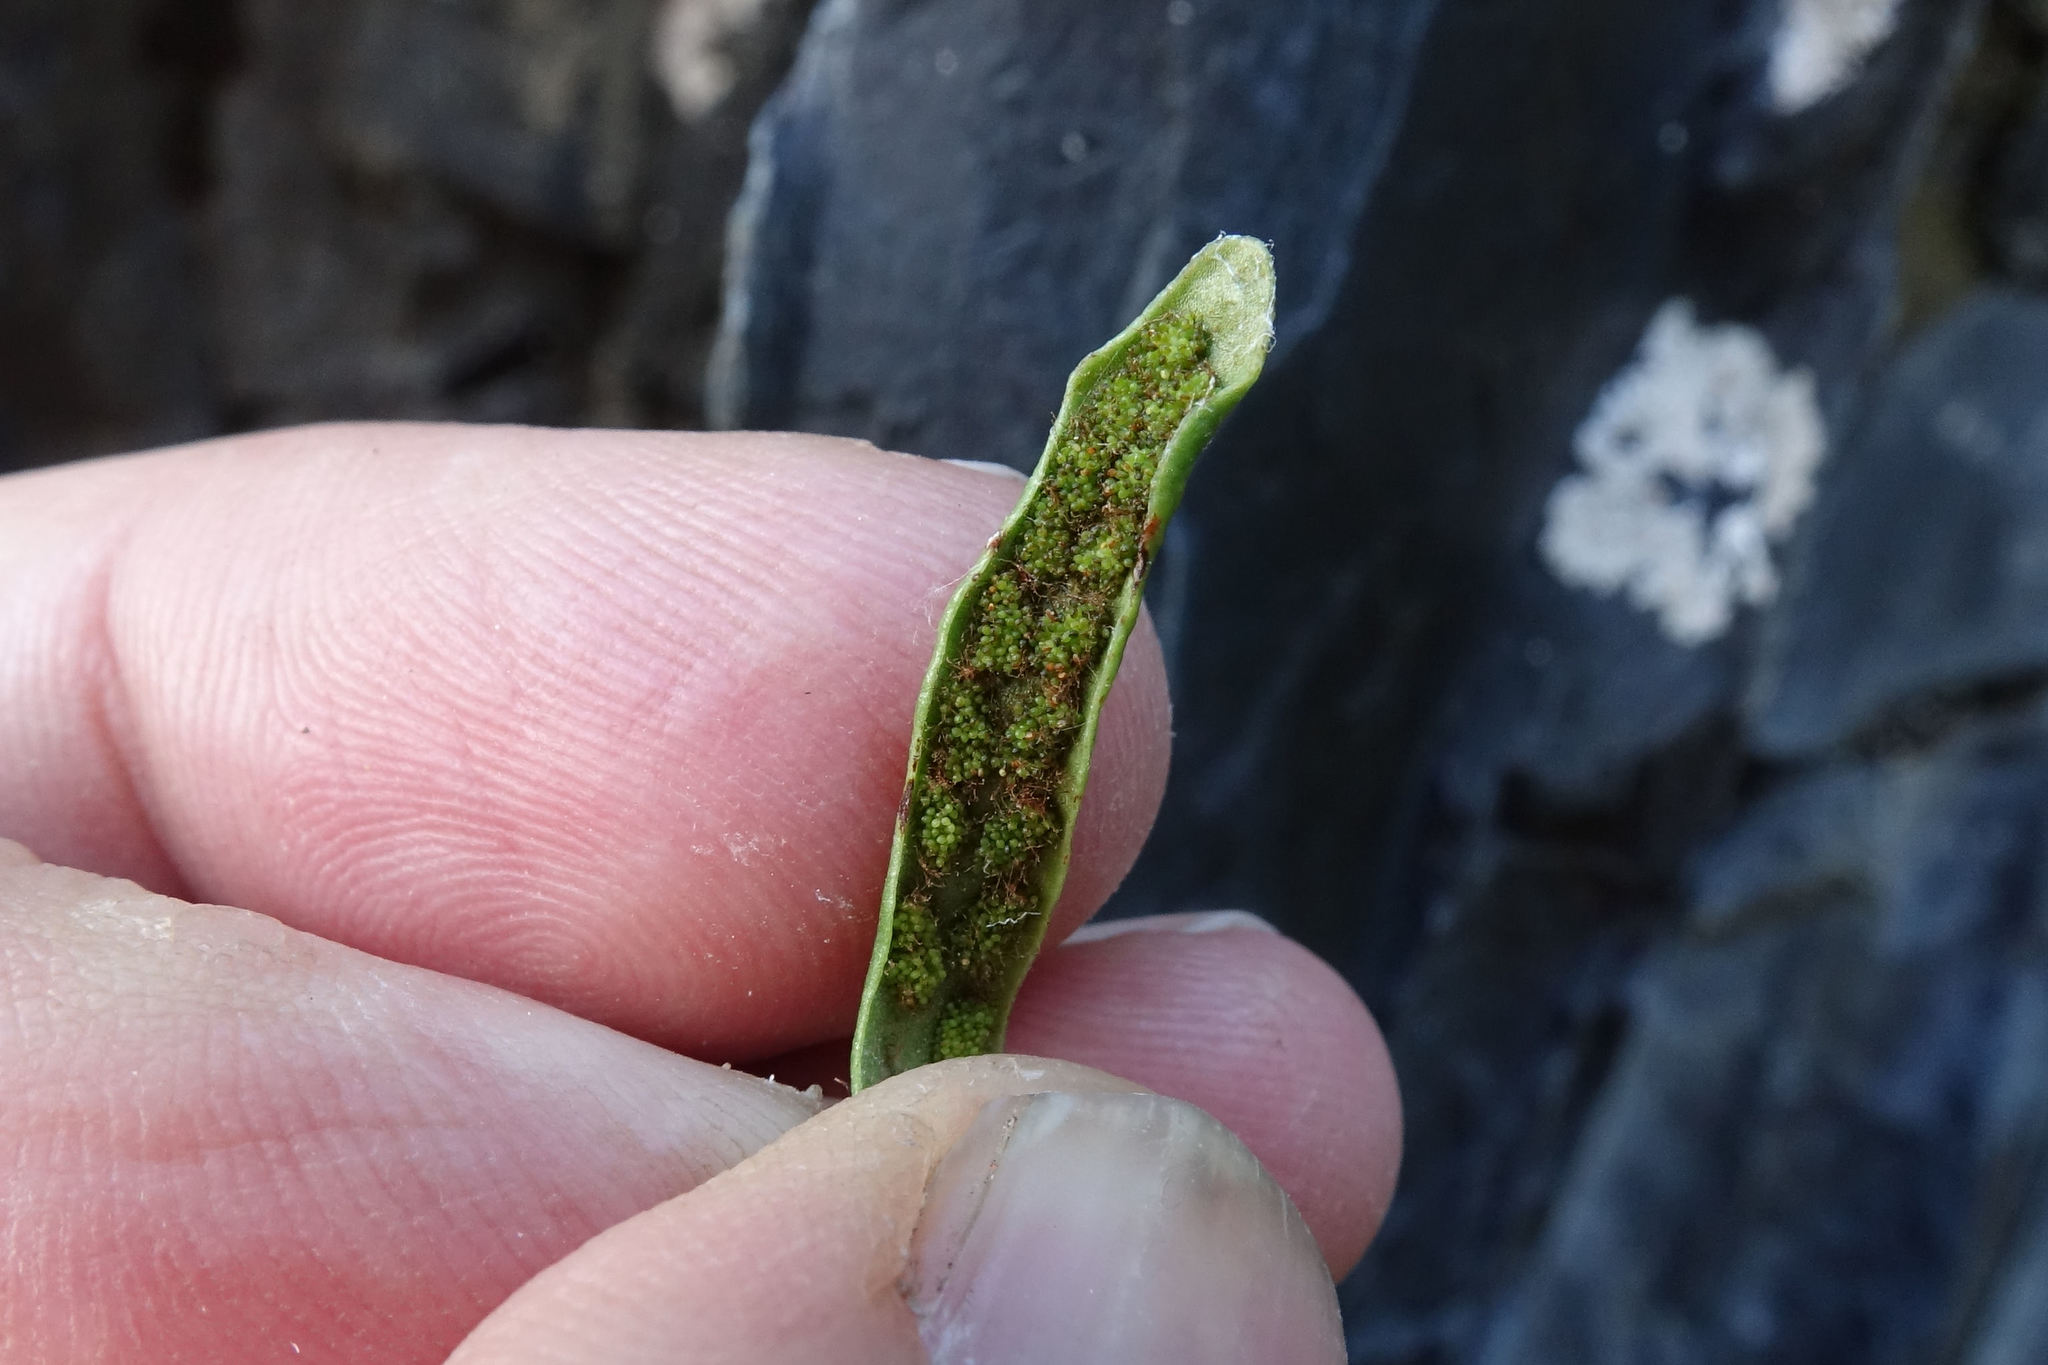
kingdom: Plantae
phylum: Tracheophyta
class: Polypodiopsida
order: Polypodiales
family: Polypodiaceae
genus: Notogrammitis
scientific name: Notogrammitis patagonica
